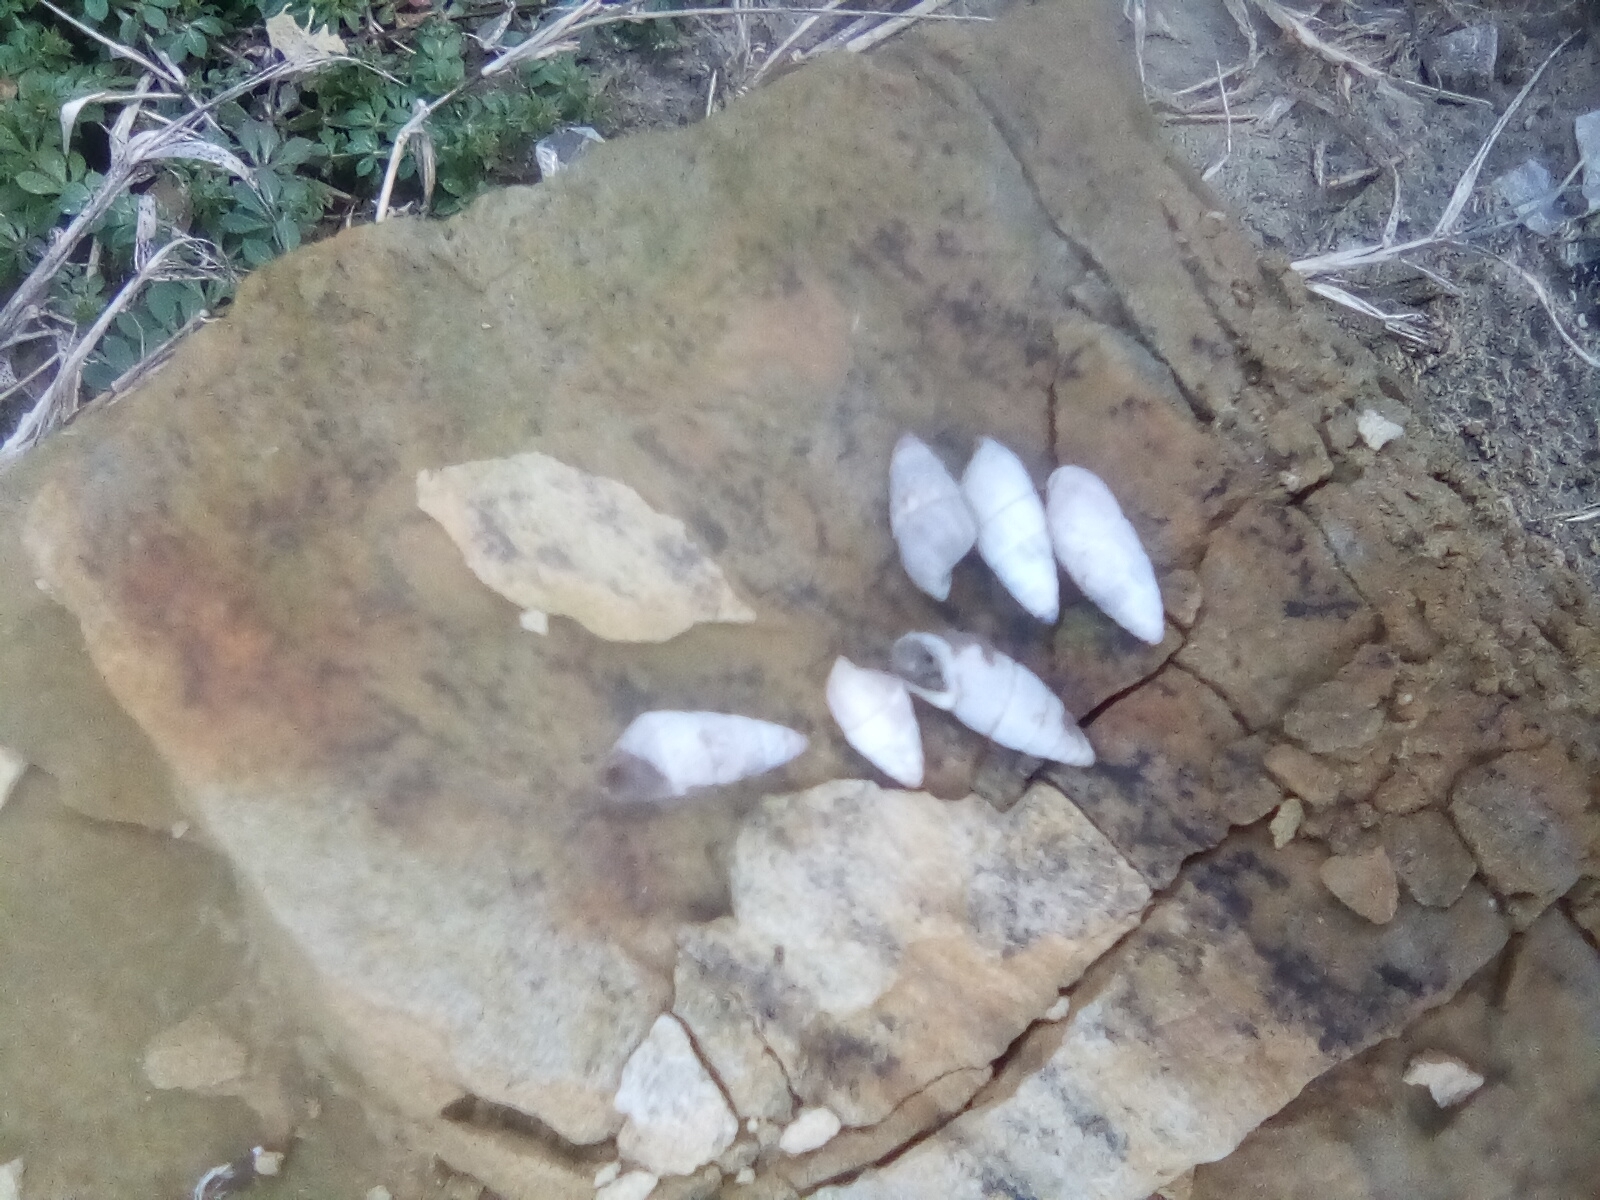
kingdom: Animalia
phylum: Mollusca
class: Gastropoda
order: Stylommatophora
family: Enidae
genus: Brephulopsis
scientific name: Brephulopsis cylindrica
